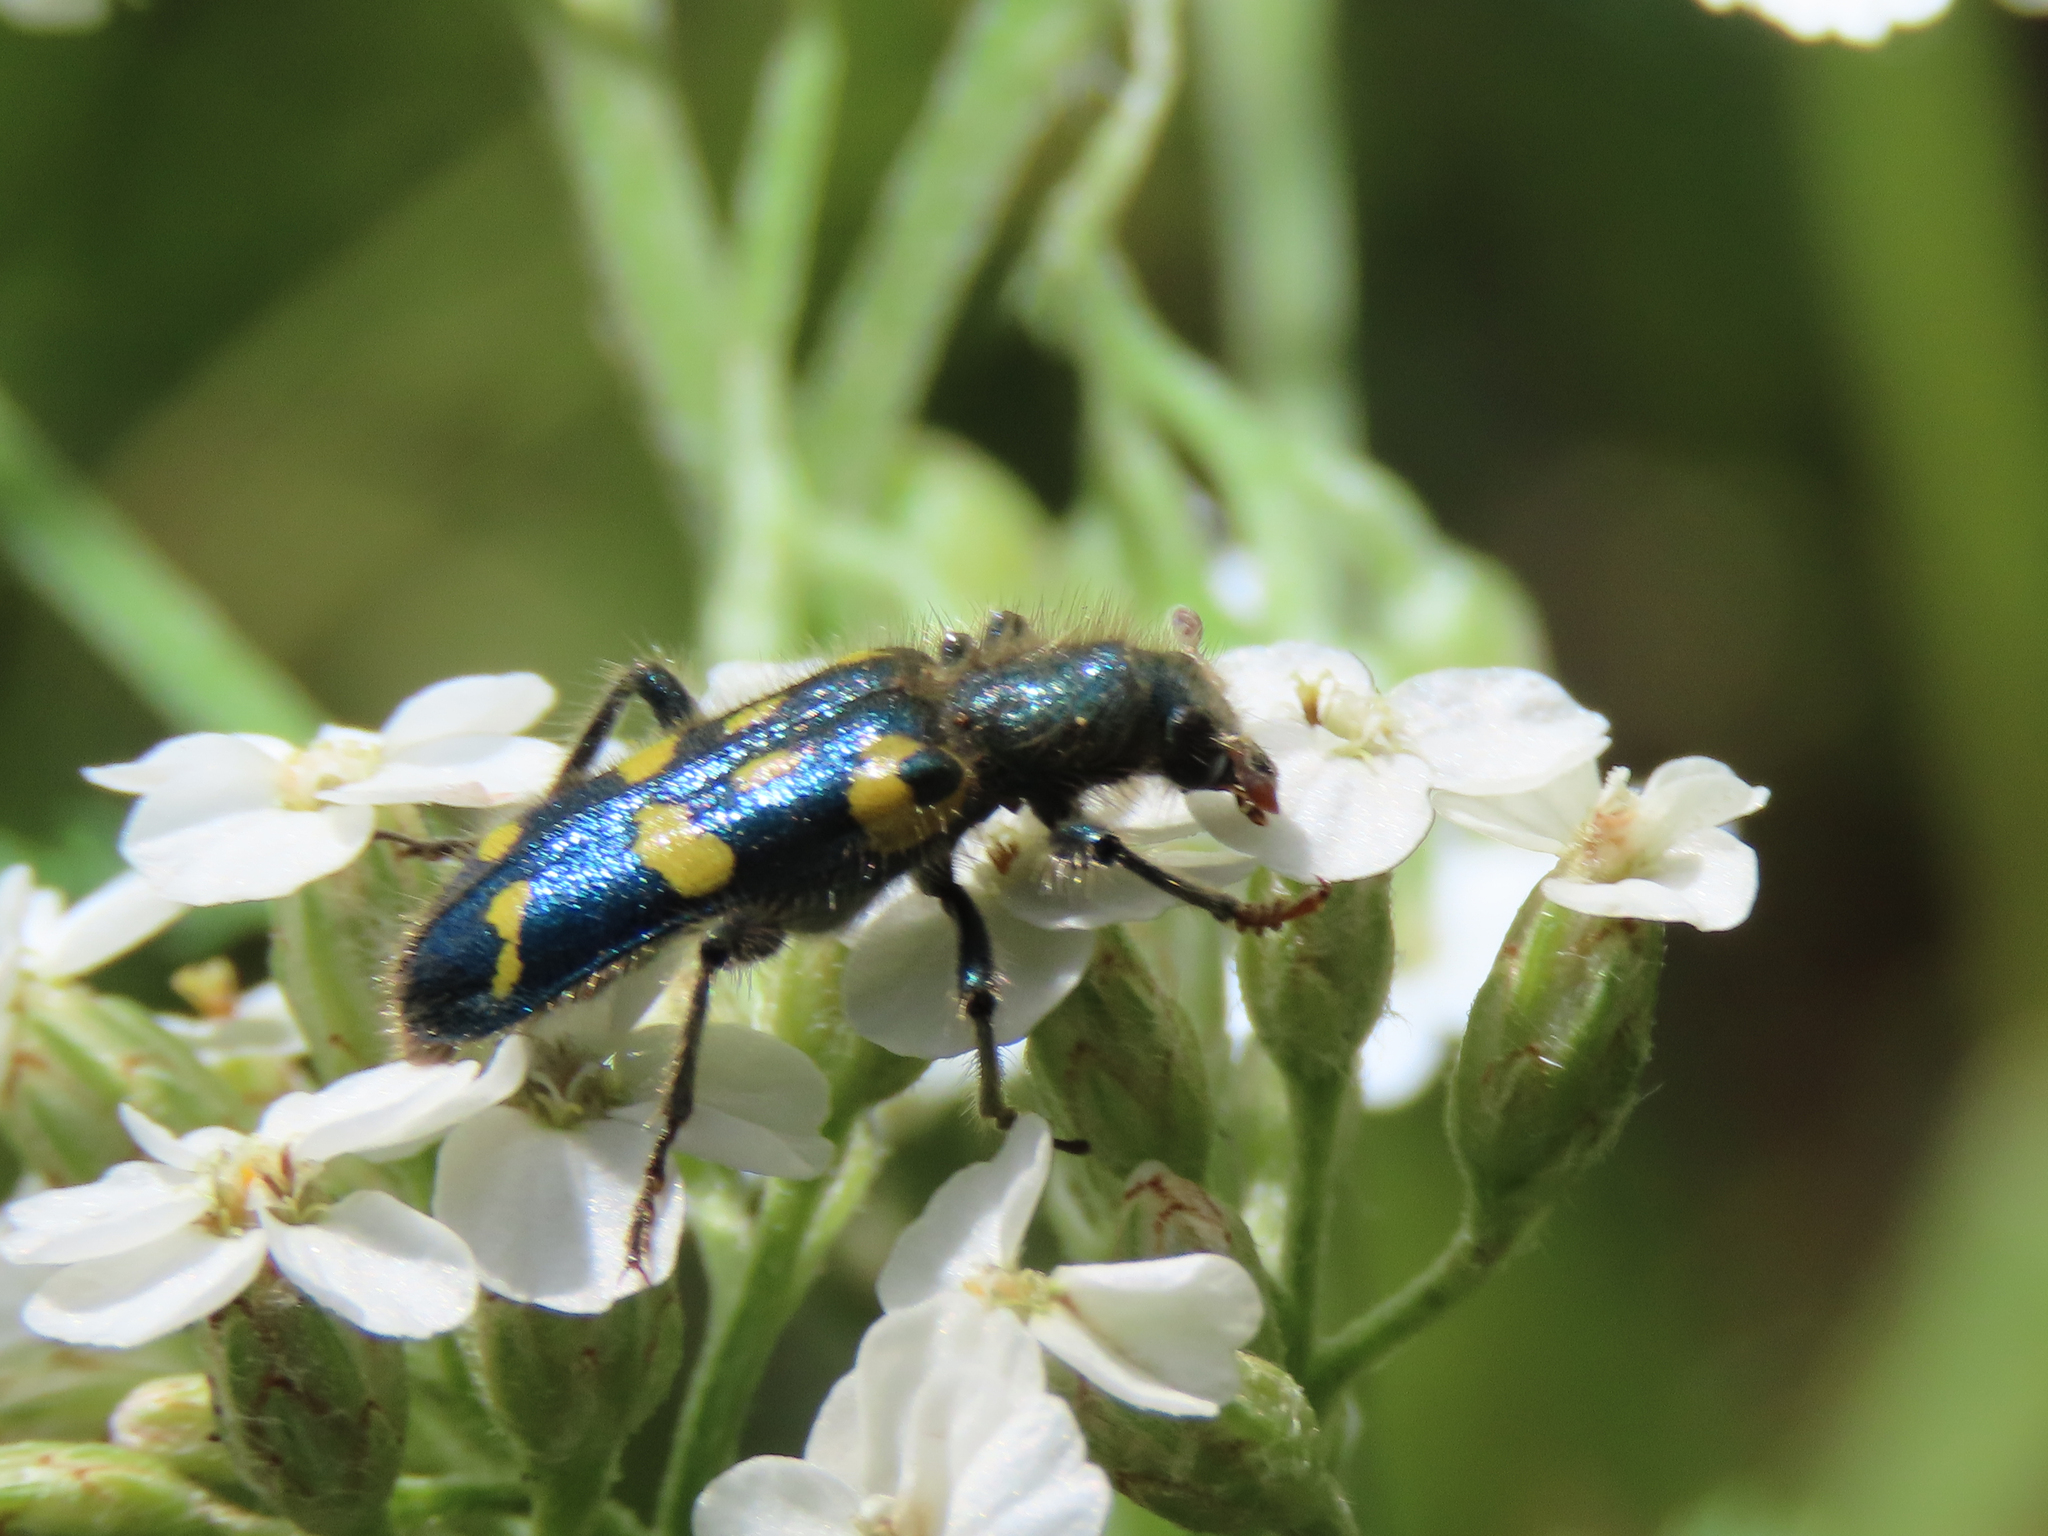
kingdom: Animalia
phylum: Arthropoda
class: Insecta
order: Coleoptera
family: Cleridae
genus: Trichodes
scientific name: Trichodes ornatus
